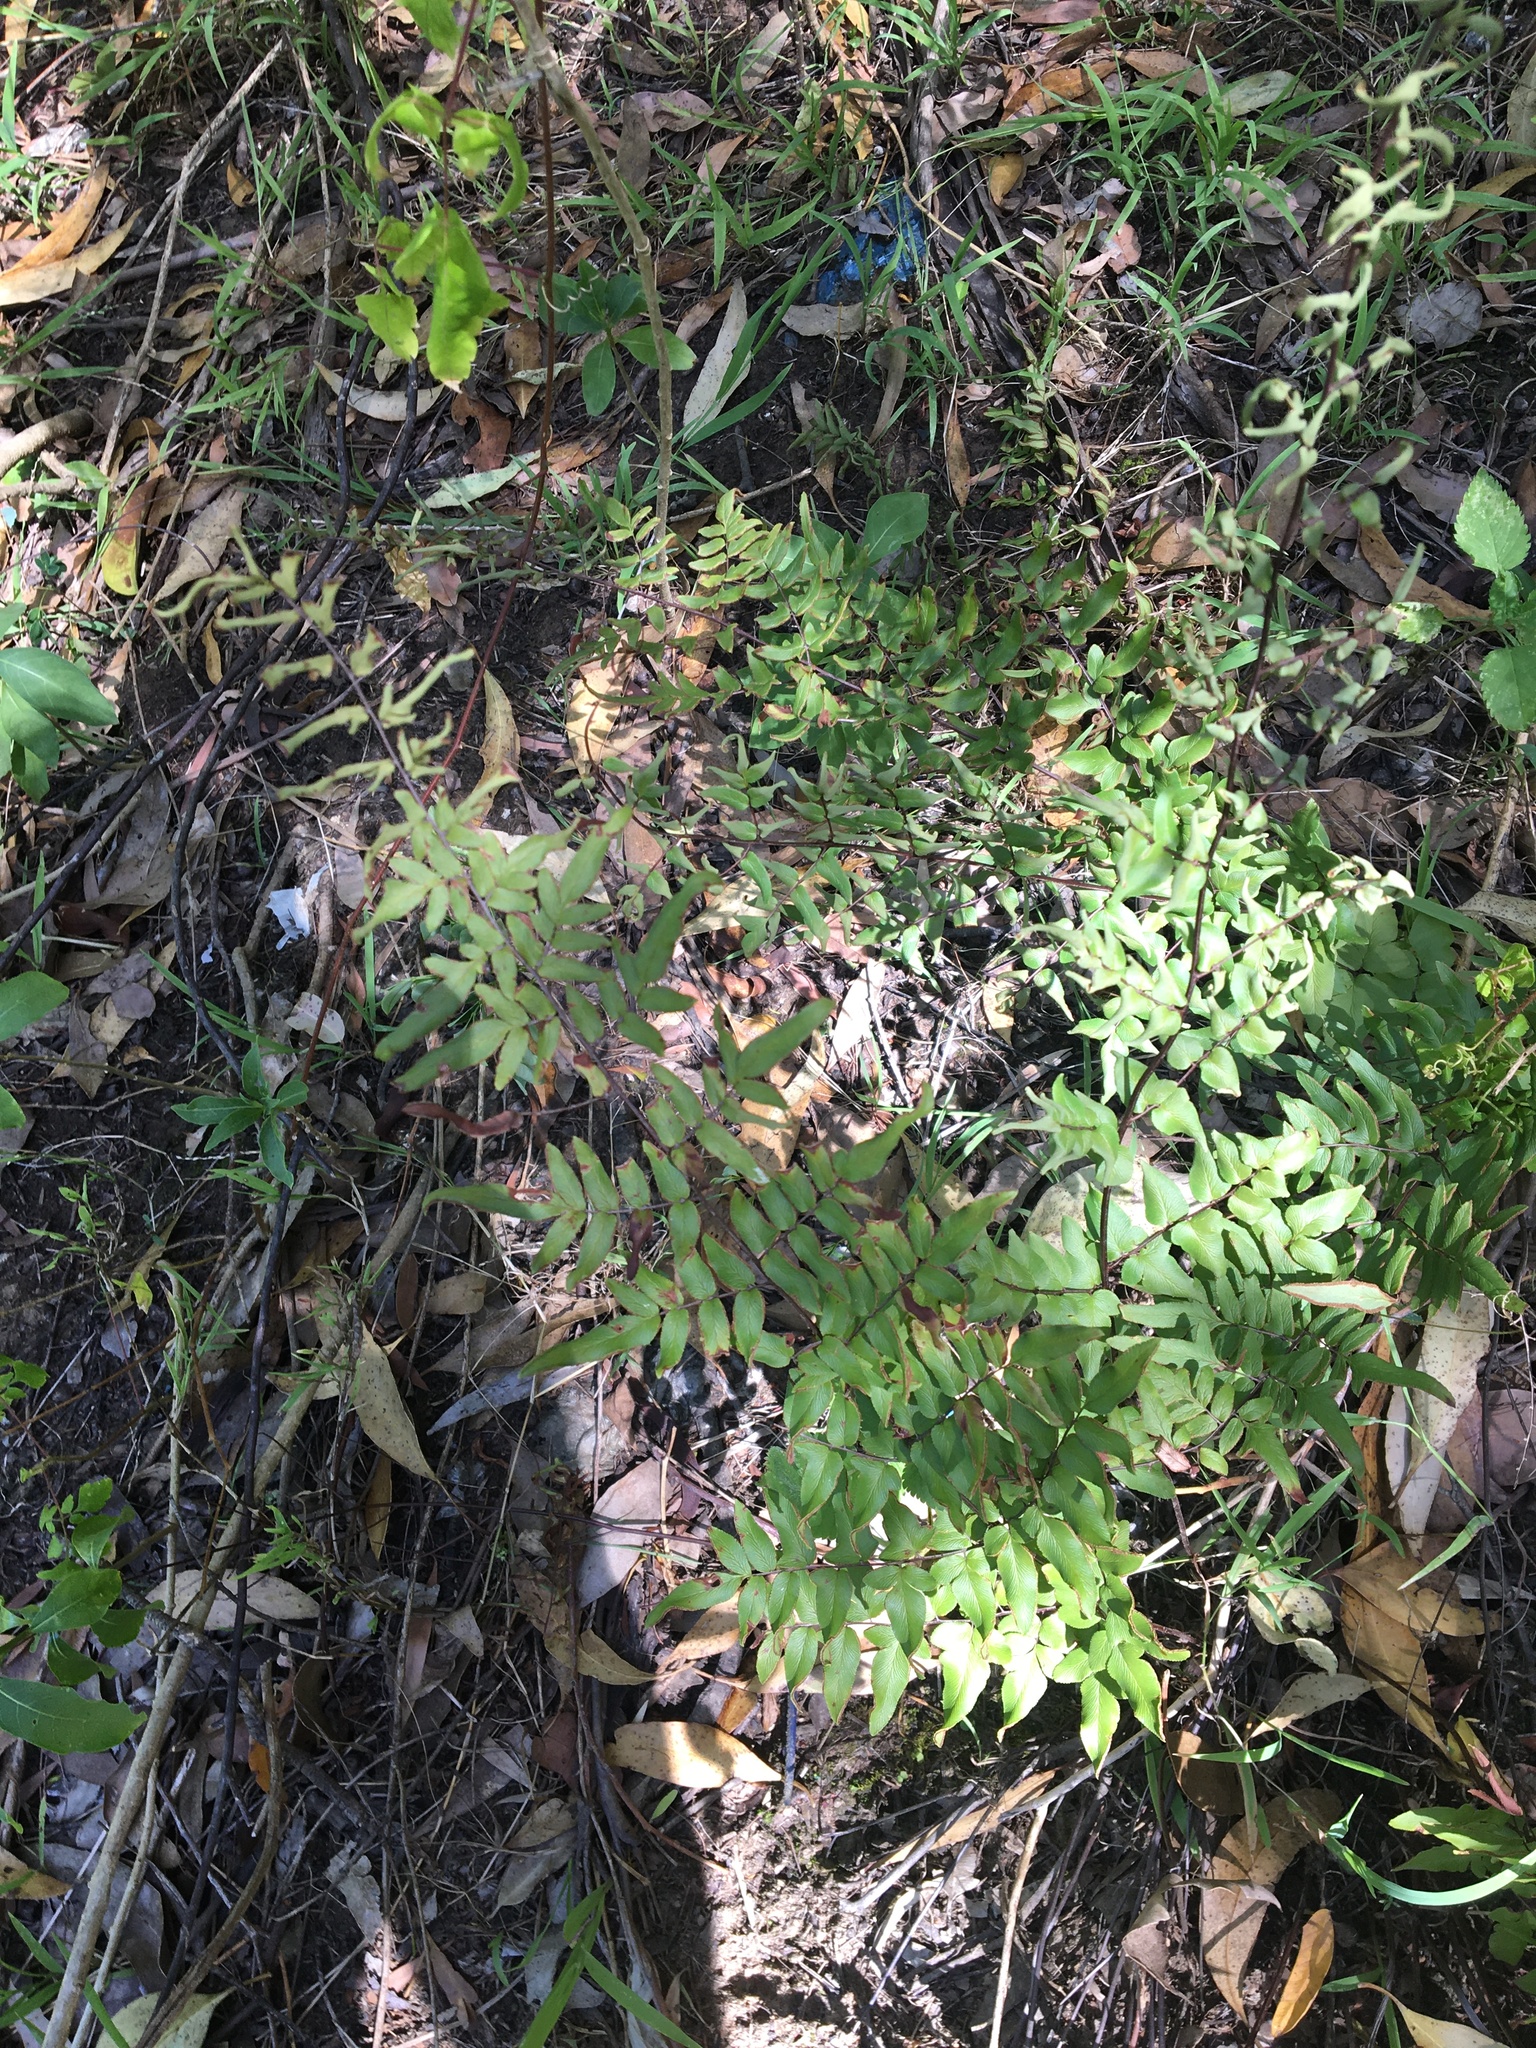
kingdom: Plantae
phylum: Tracheophyta
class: Polypodiopsida
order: Polypodiales
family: Pteridaceae
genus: Cheilanthes
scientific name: Cheilanthes viridis
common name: Green cliffbrake
